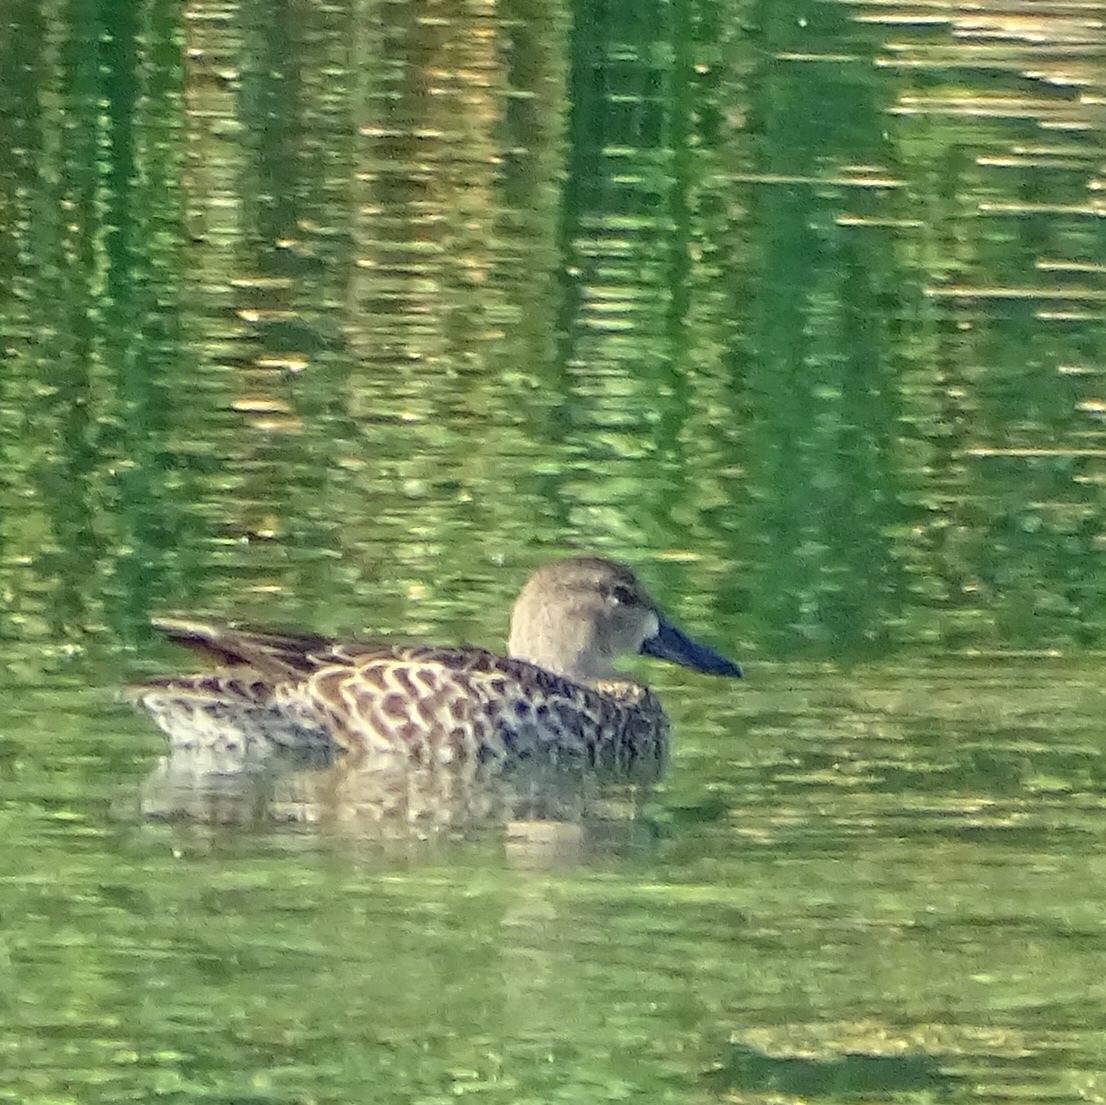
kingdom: Animalia
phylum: Chordata
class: Aves
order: Anseriformes
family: Anatidae
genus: Spatula
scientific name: Spatula discors
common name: Blue-winged teal
